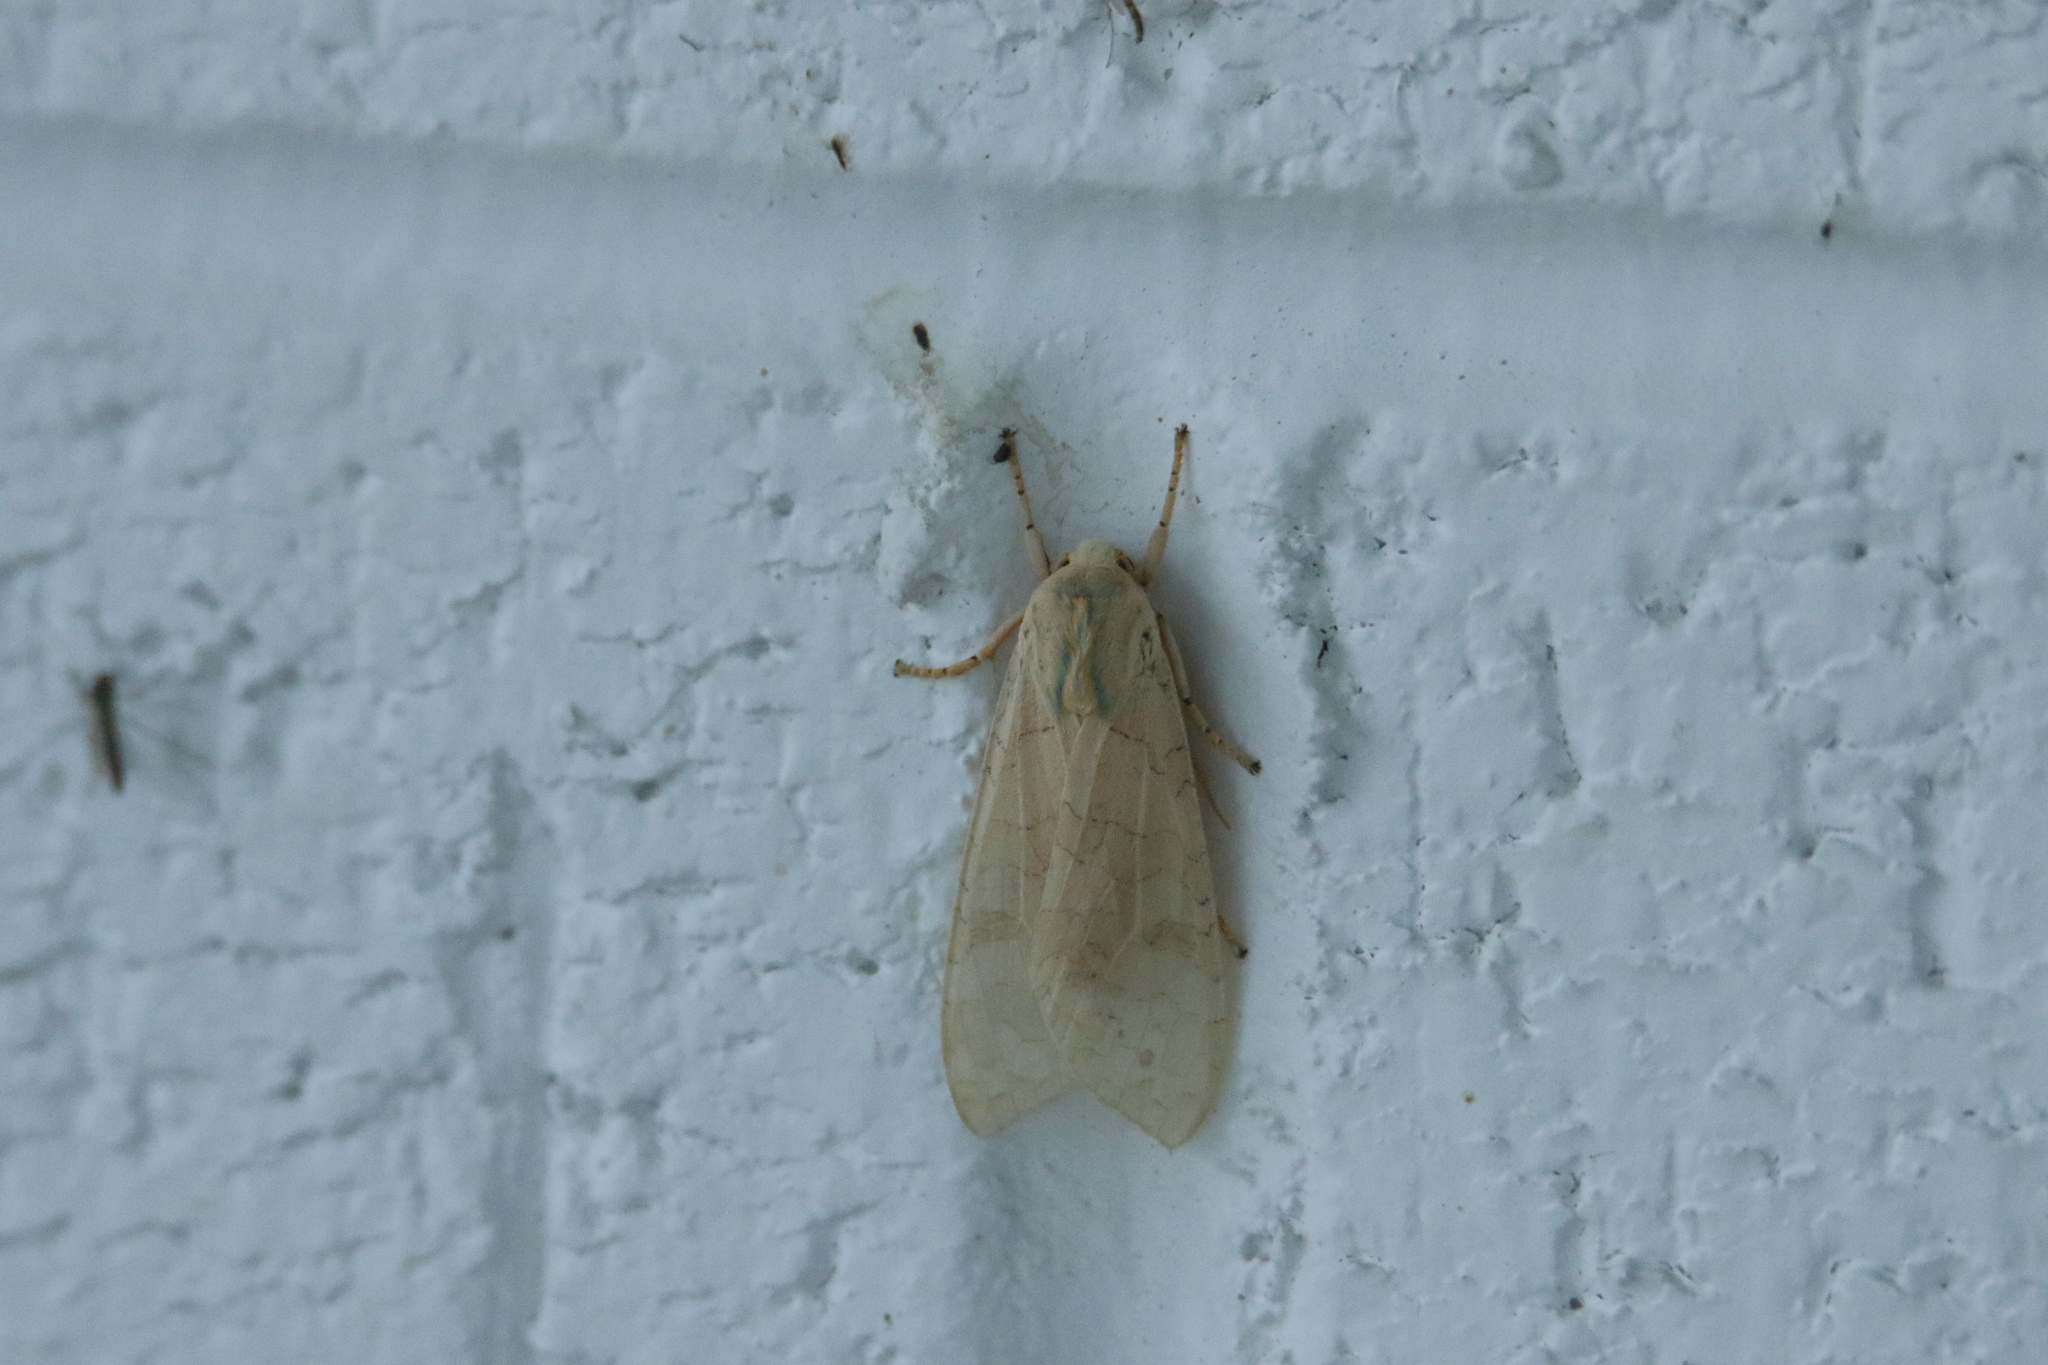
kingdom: Animalia
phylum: Arthropoda
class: Insecta
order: Lepidoptera
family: Erebidae
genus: Halysidota
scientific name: Halysidota
